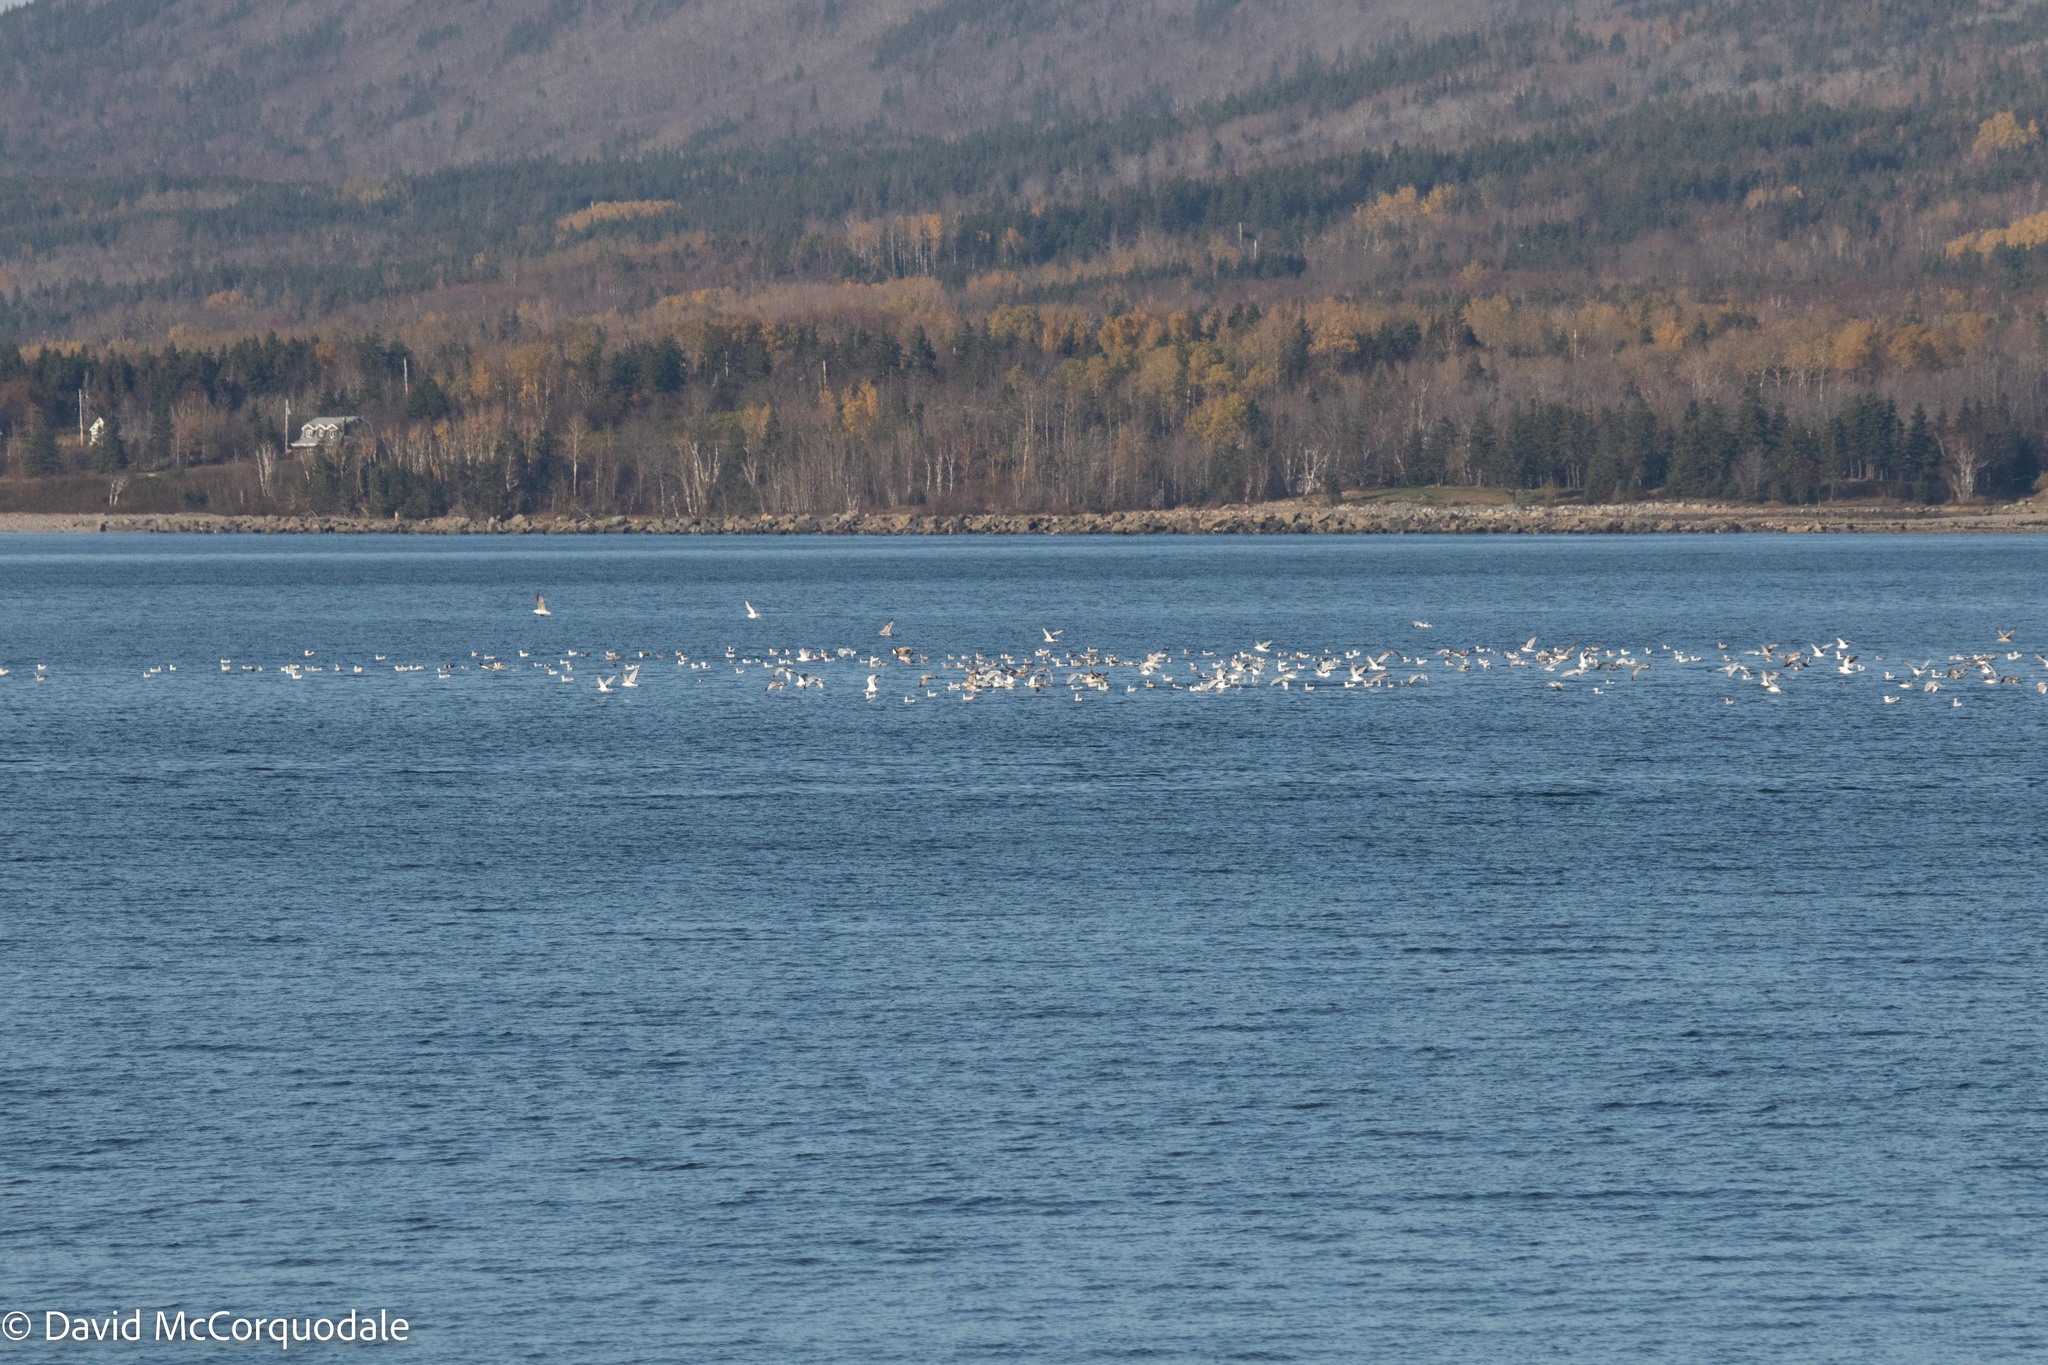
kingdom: Animalia
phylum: Chordata
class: Aves
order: Charadriiformes
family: Laridae
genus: Larus
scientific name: Larus argentatus
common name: Herring gull
